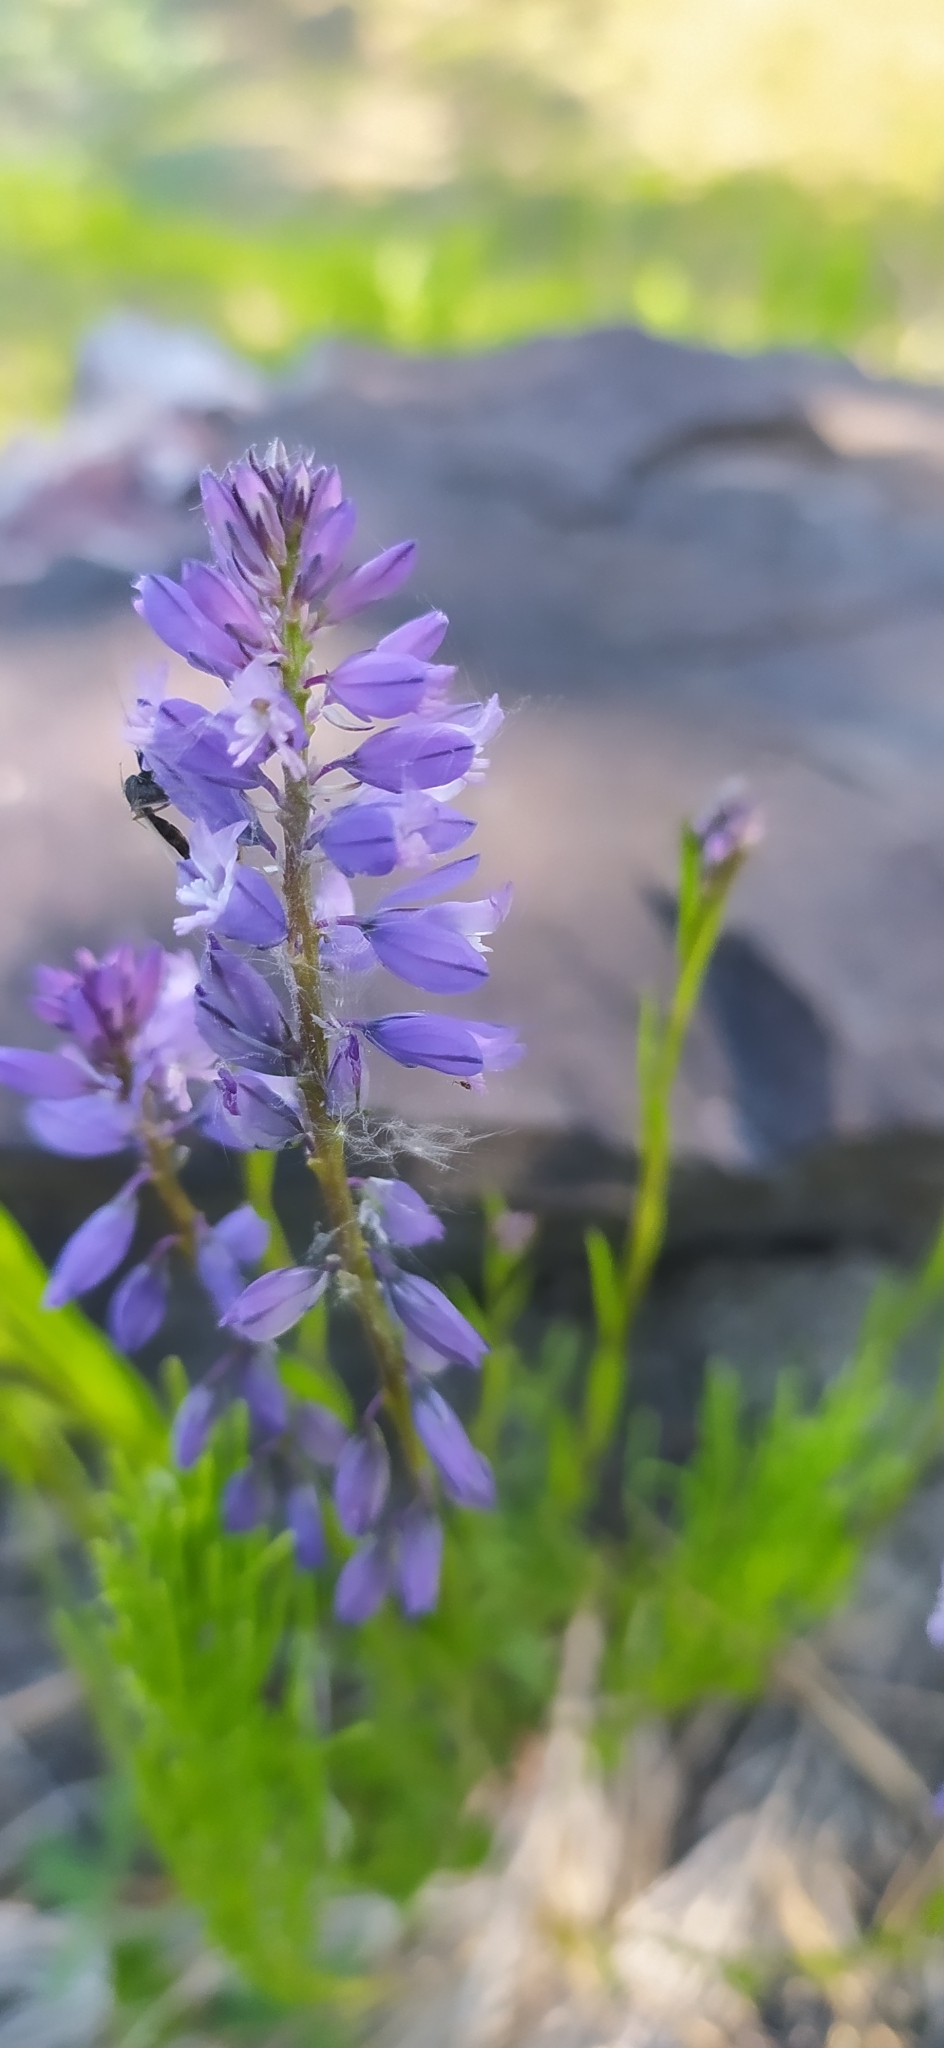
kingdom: Plantae
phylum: Tracheophyta
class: Magnoliopsida
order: Fabales
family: Polygalaceae
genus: Polygala
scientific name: Polygala comosa
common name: Tufted milkwort
